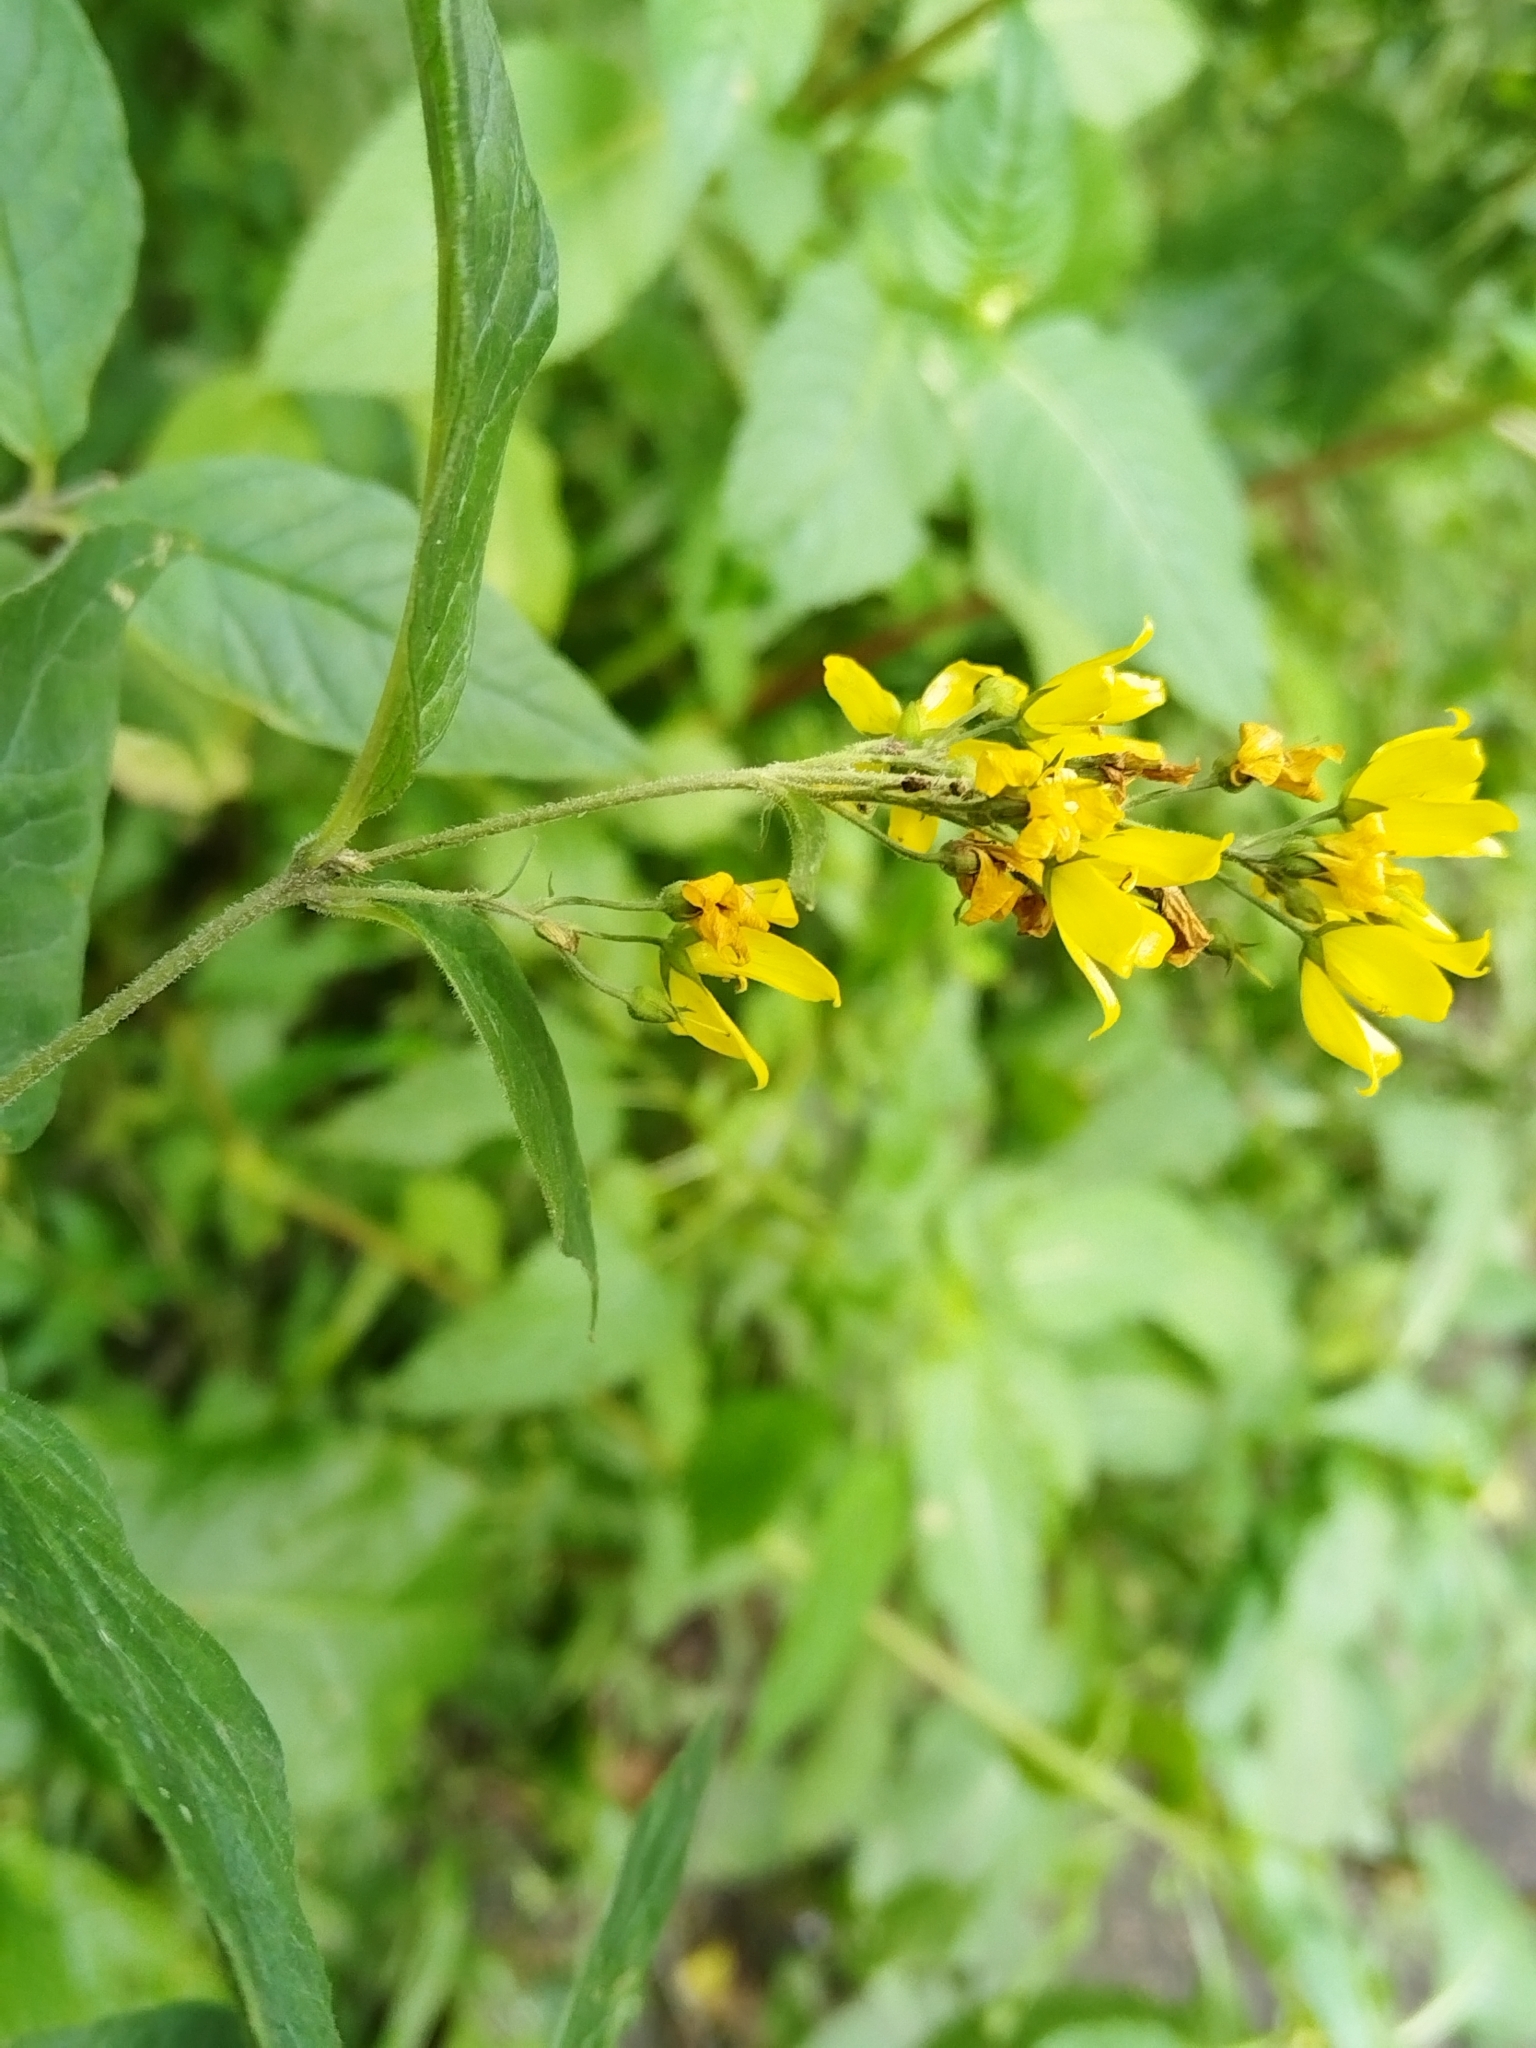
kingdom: Plantae
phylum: Tracheophyta
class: Magnoliopsida
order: Ericales
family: Primulaceae
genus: Lysimachia
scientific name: Lysimachia vulgaris
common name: Yellow loosestrife
